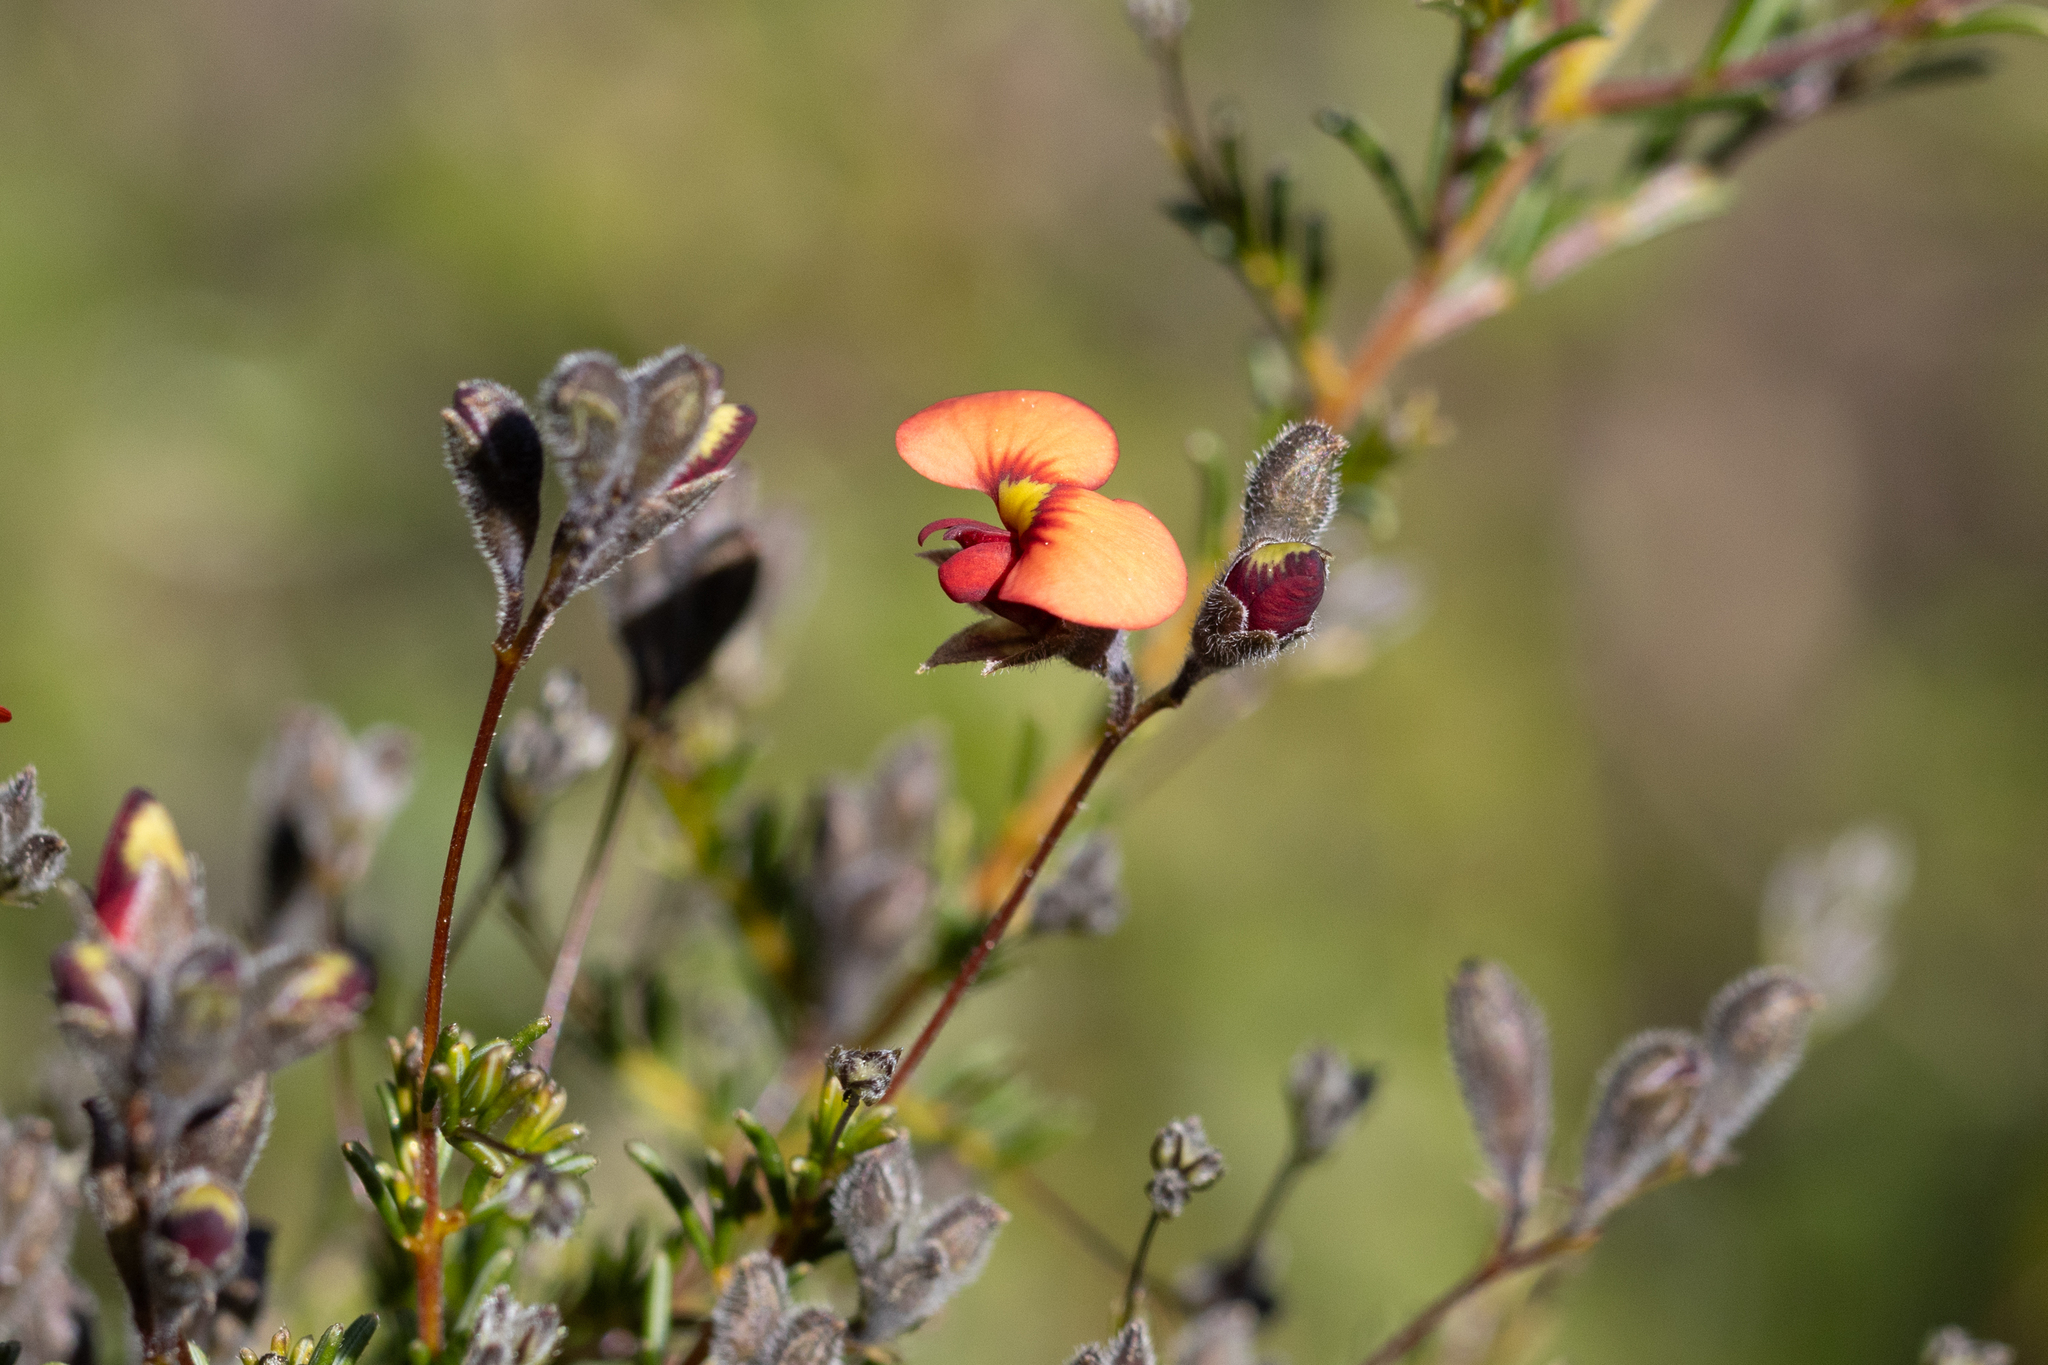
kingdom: Plantae
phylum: Tracheophyta
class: Magnoliopsida
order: Fabales
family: Fabaceae
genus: Dillwynia
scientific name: Dillwynia hispida
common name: Red parrot-pea
